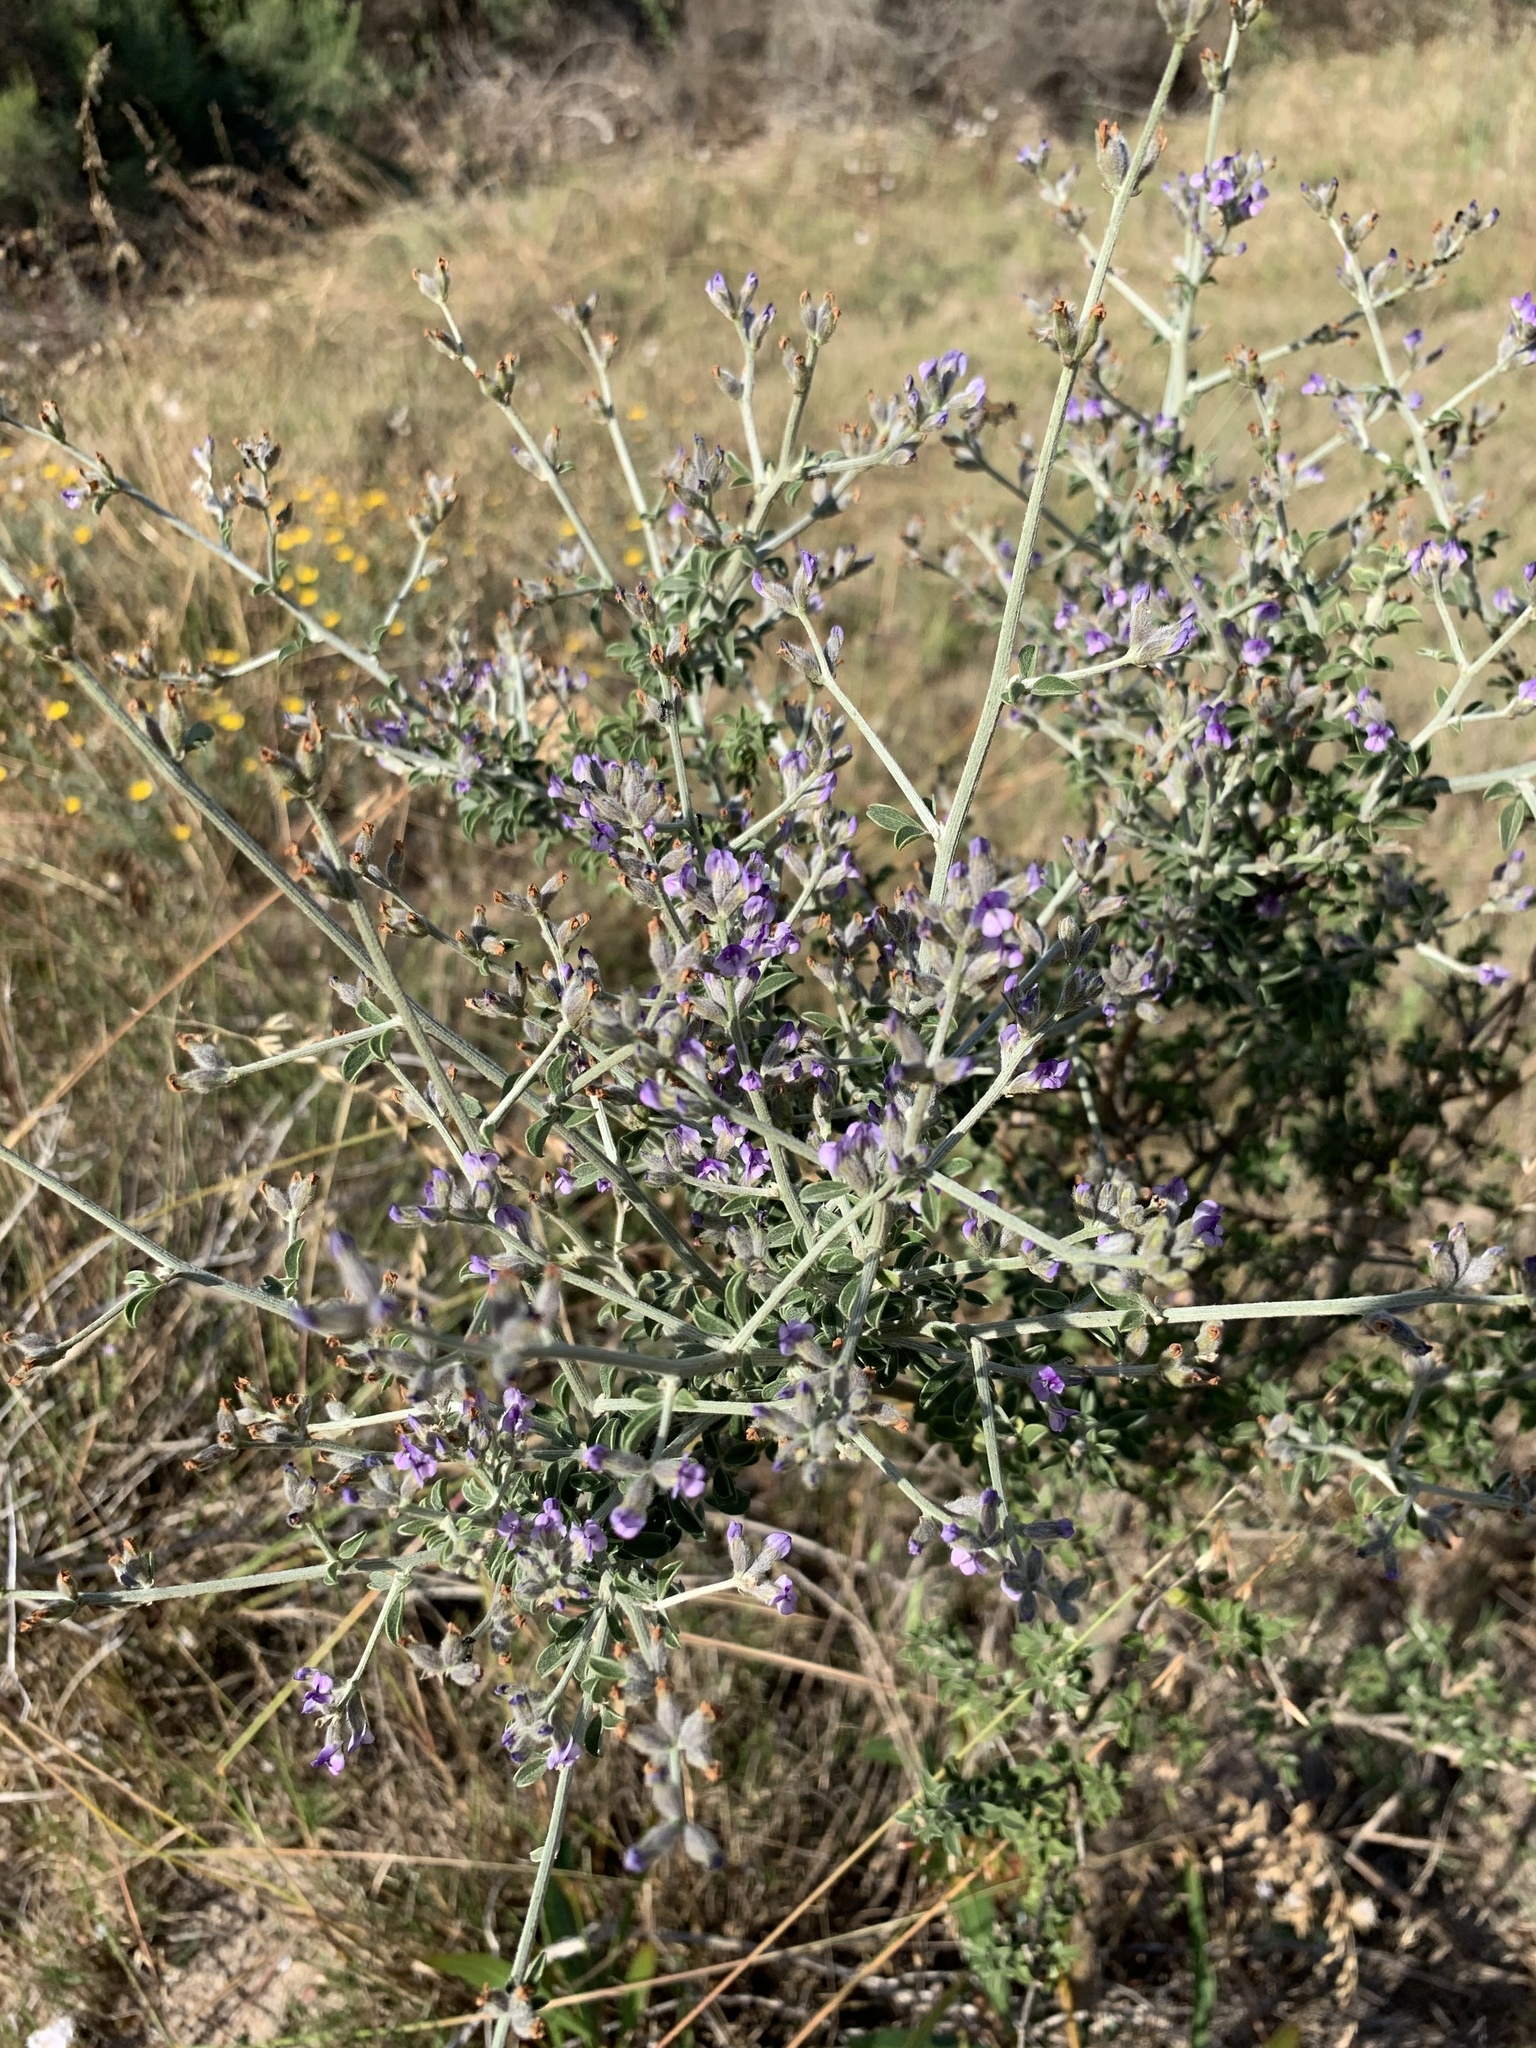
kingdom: Plantae
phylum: Tracheophyta
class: Magnoliopsida
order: Fabales
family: Fabaceae
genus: Psoralea
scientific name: Psoralea hirta
